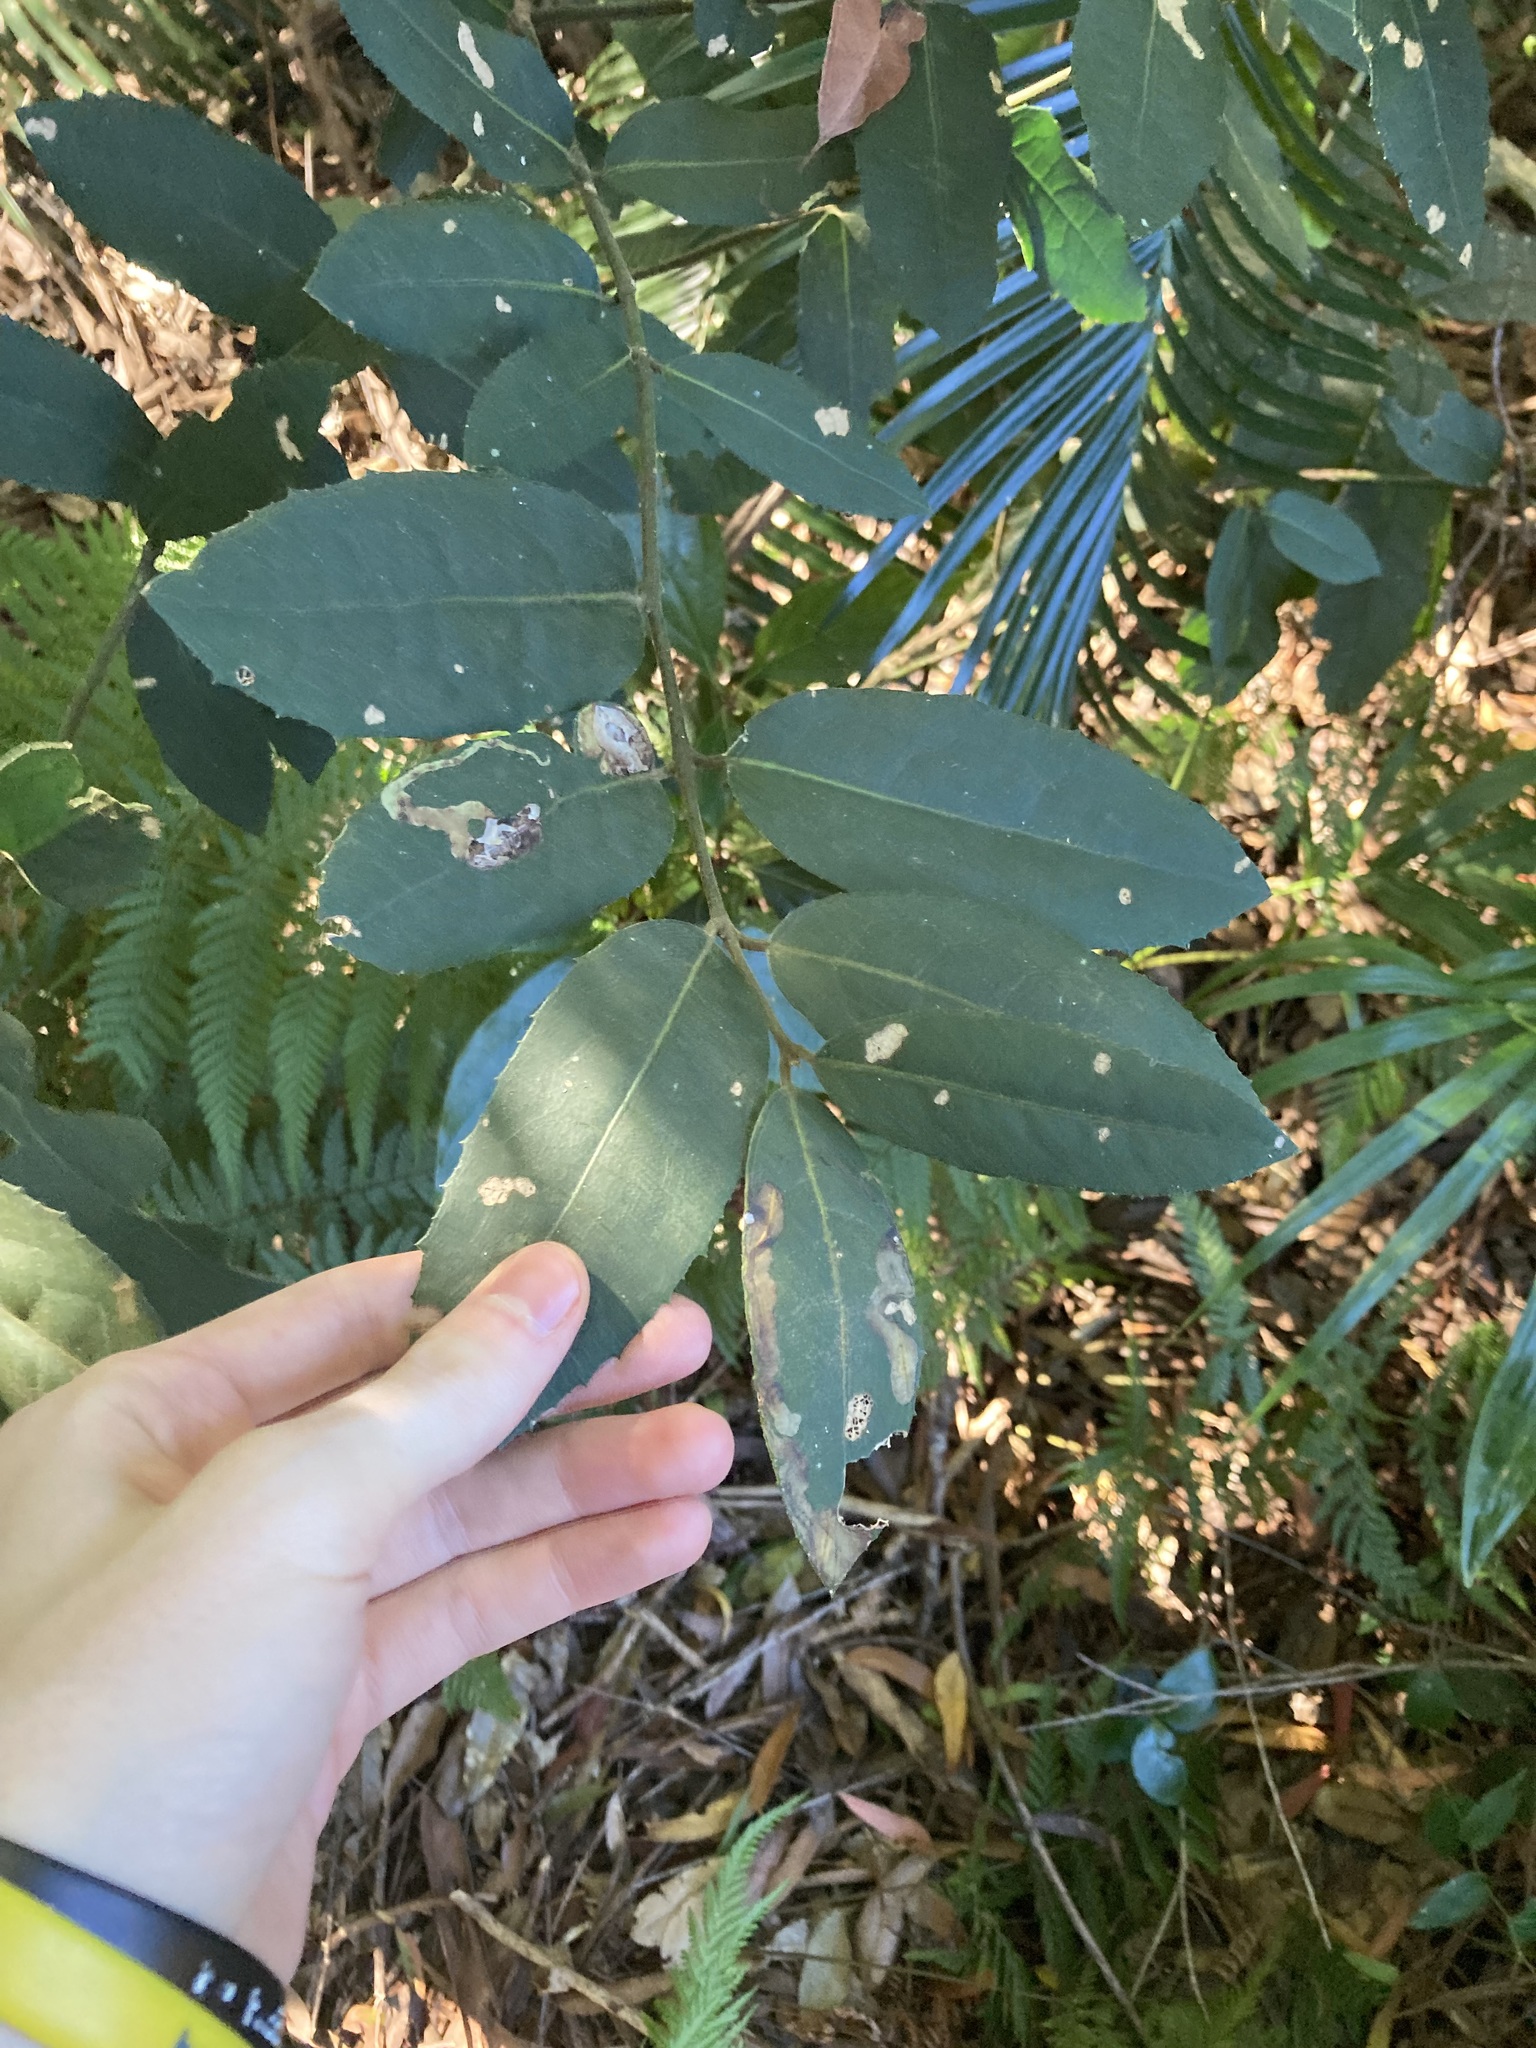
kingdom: Plantae
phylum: Tracheophyta
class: Magnoliopsida
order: Laurales
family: Monimiaceae
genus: Wilkiea
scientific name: Wilkiea hugeliana
